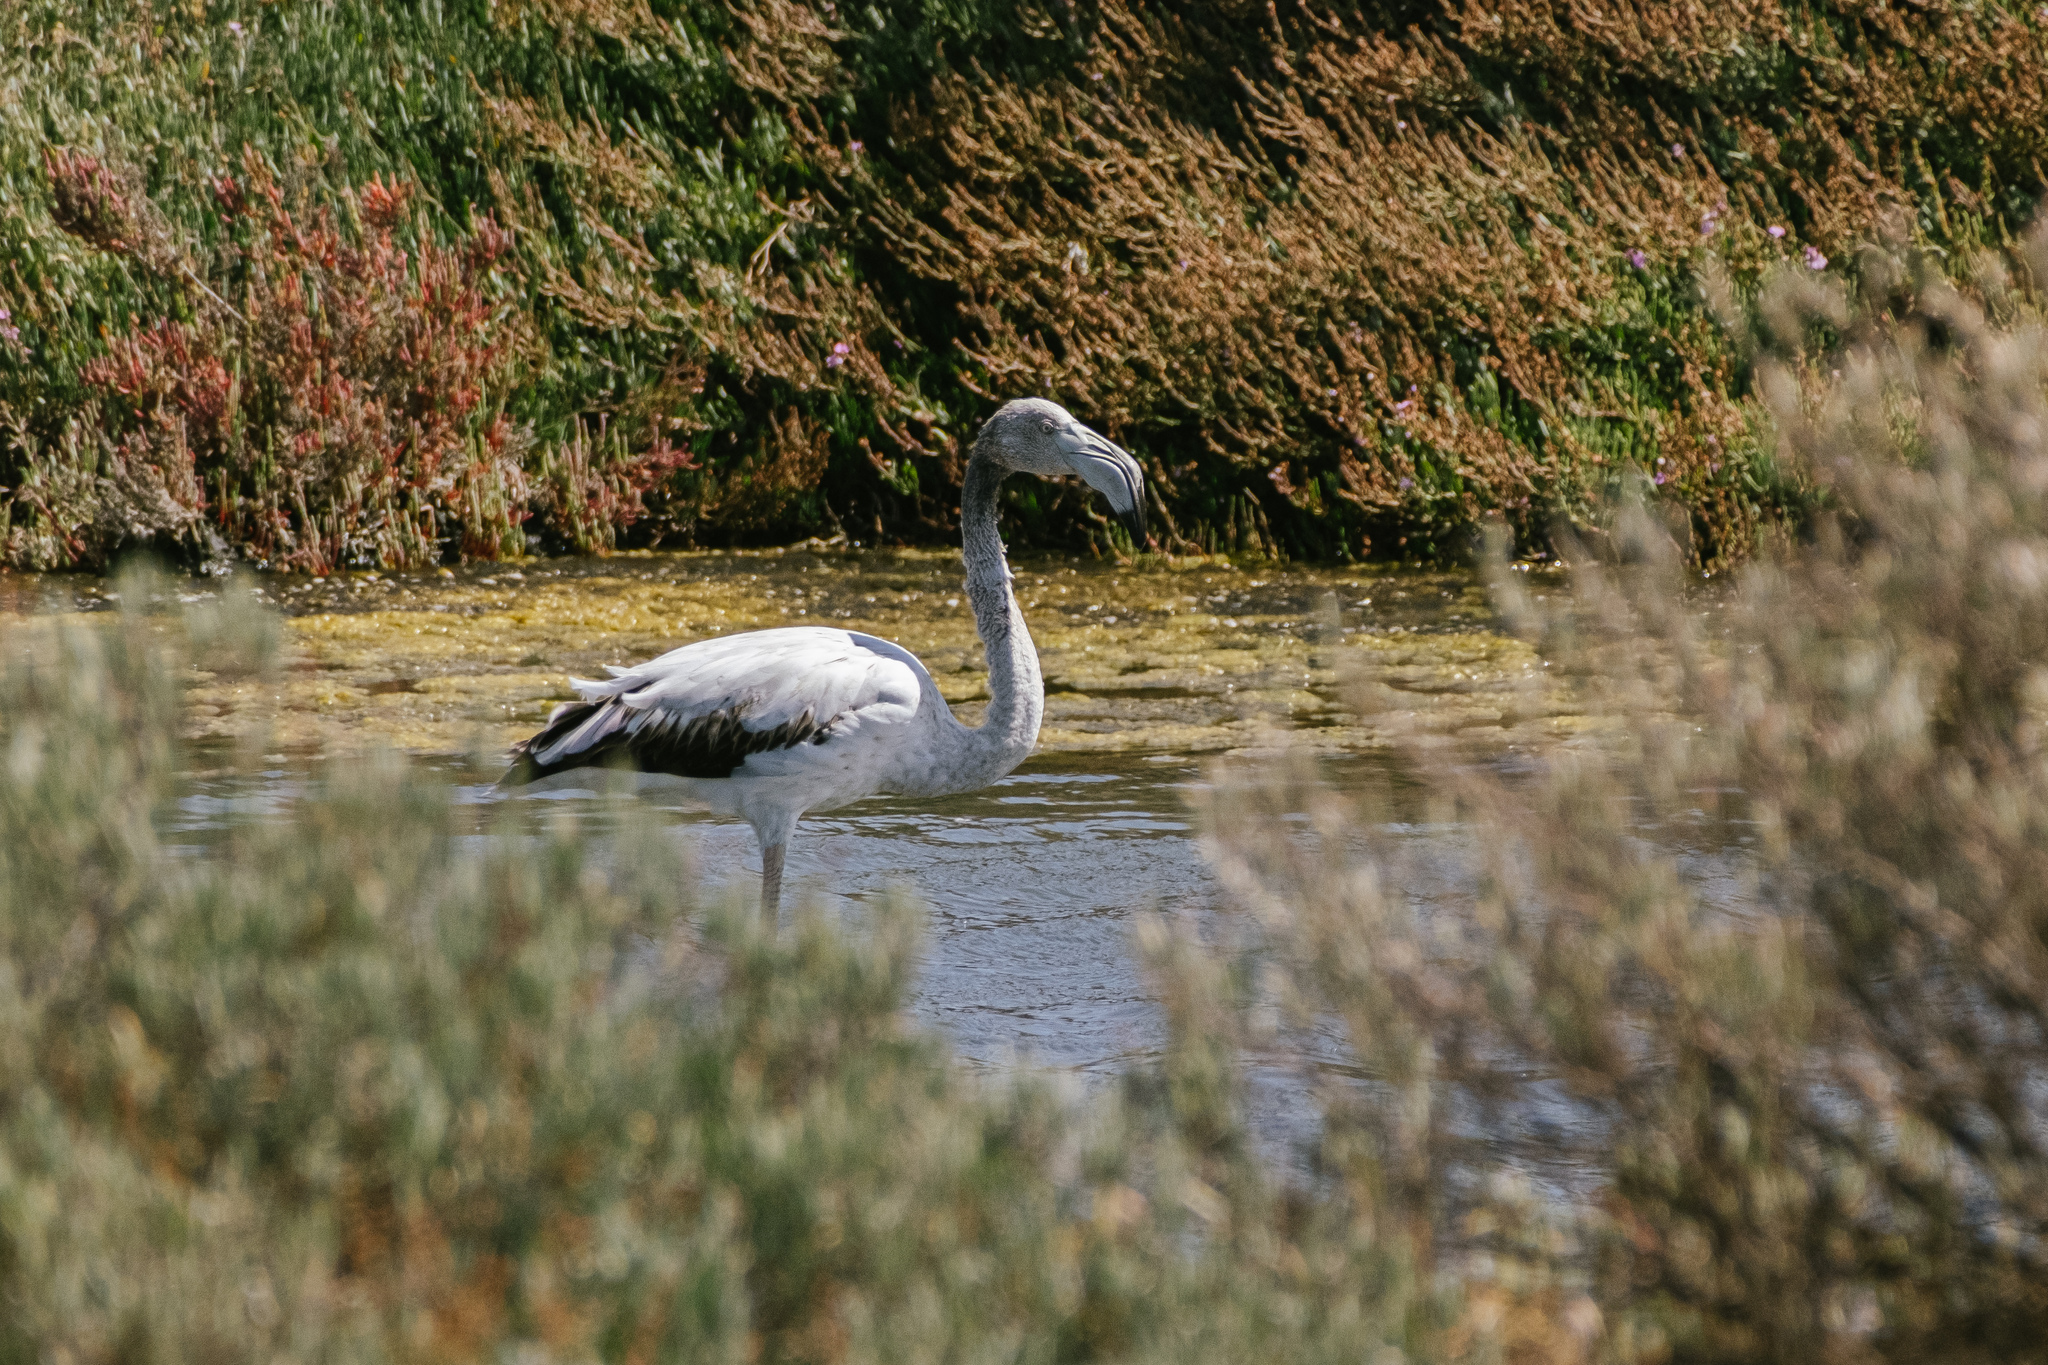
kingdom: Animalia
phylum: Chordata
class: Aves
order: Phoenicopteriformes
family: Phoenicopteridae
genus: Phoenicopterus
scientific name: Phoenicopterus roseus
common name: Greater flamingo
